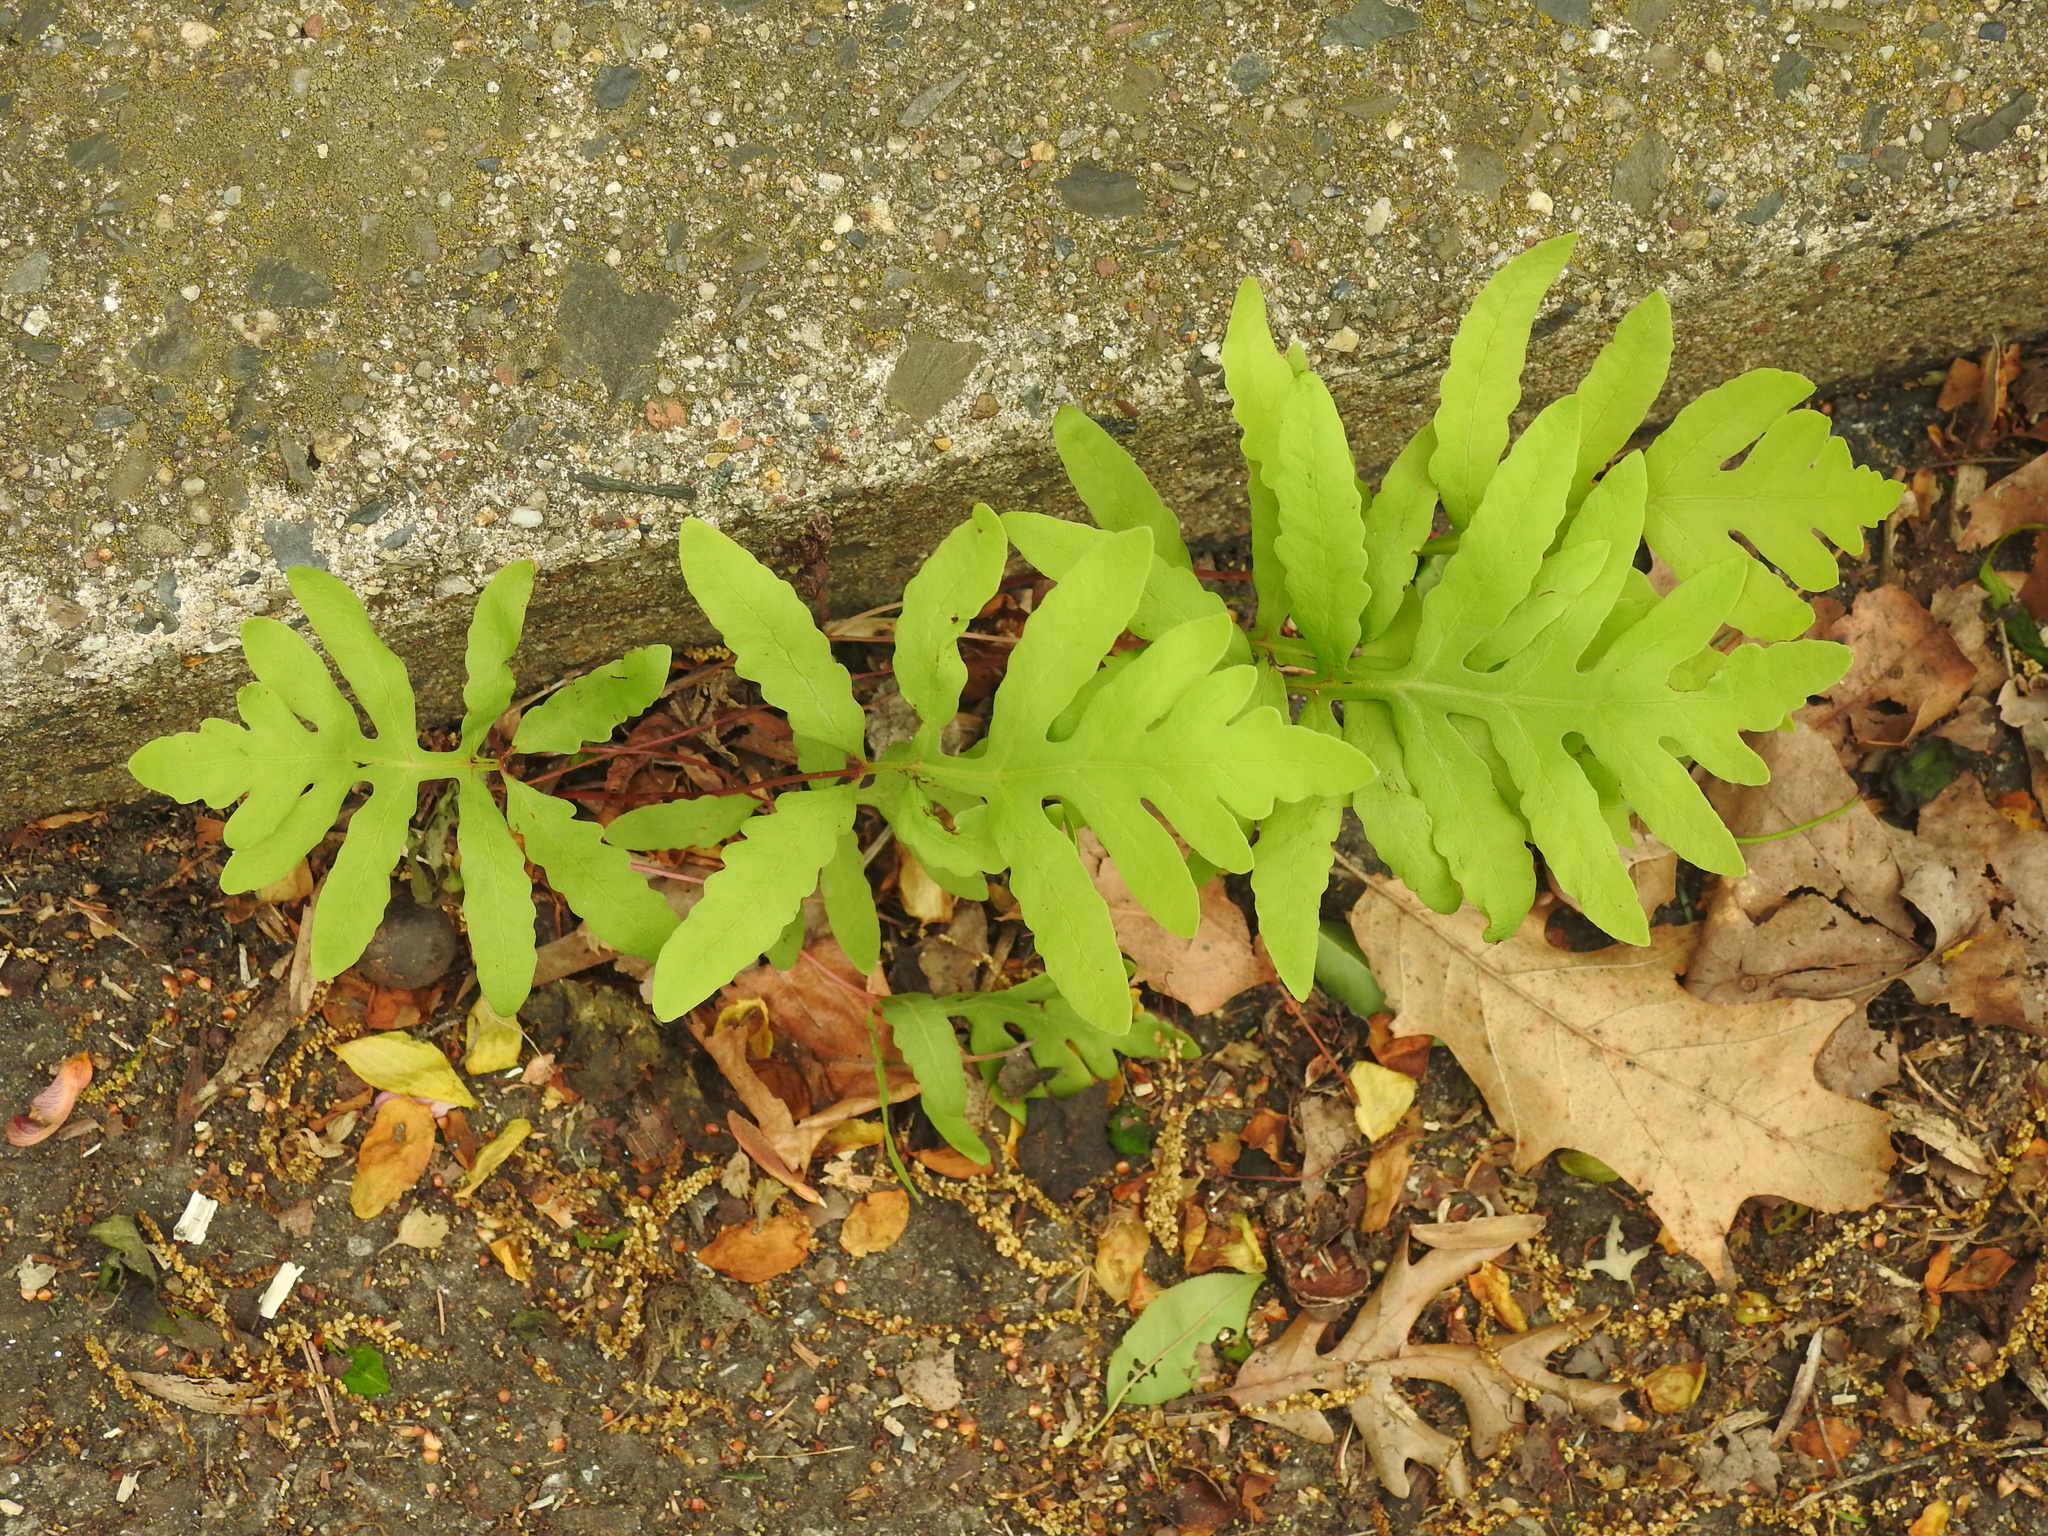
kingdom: Plantae
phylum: Tracheophyta
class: Polypodiopsida
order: Polypodiales
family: Onocleaceae
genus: Onoclea
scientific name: Onoclea sensibilis
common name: Sensitive fern
